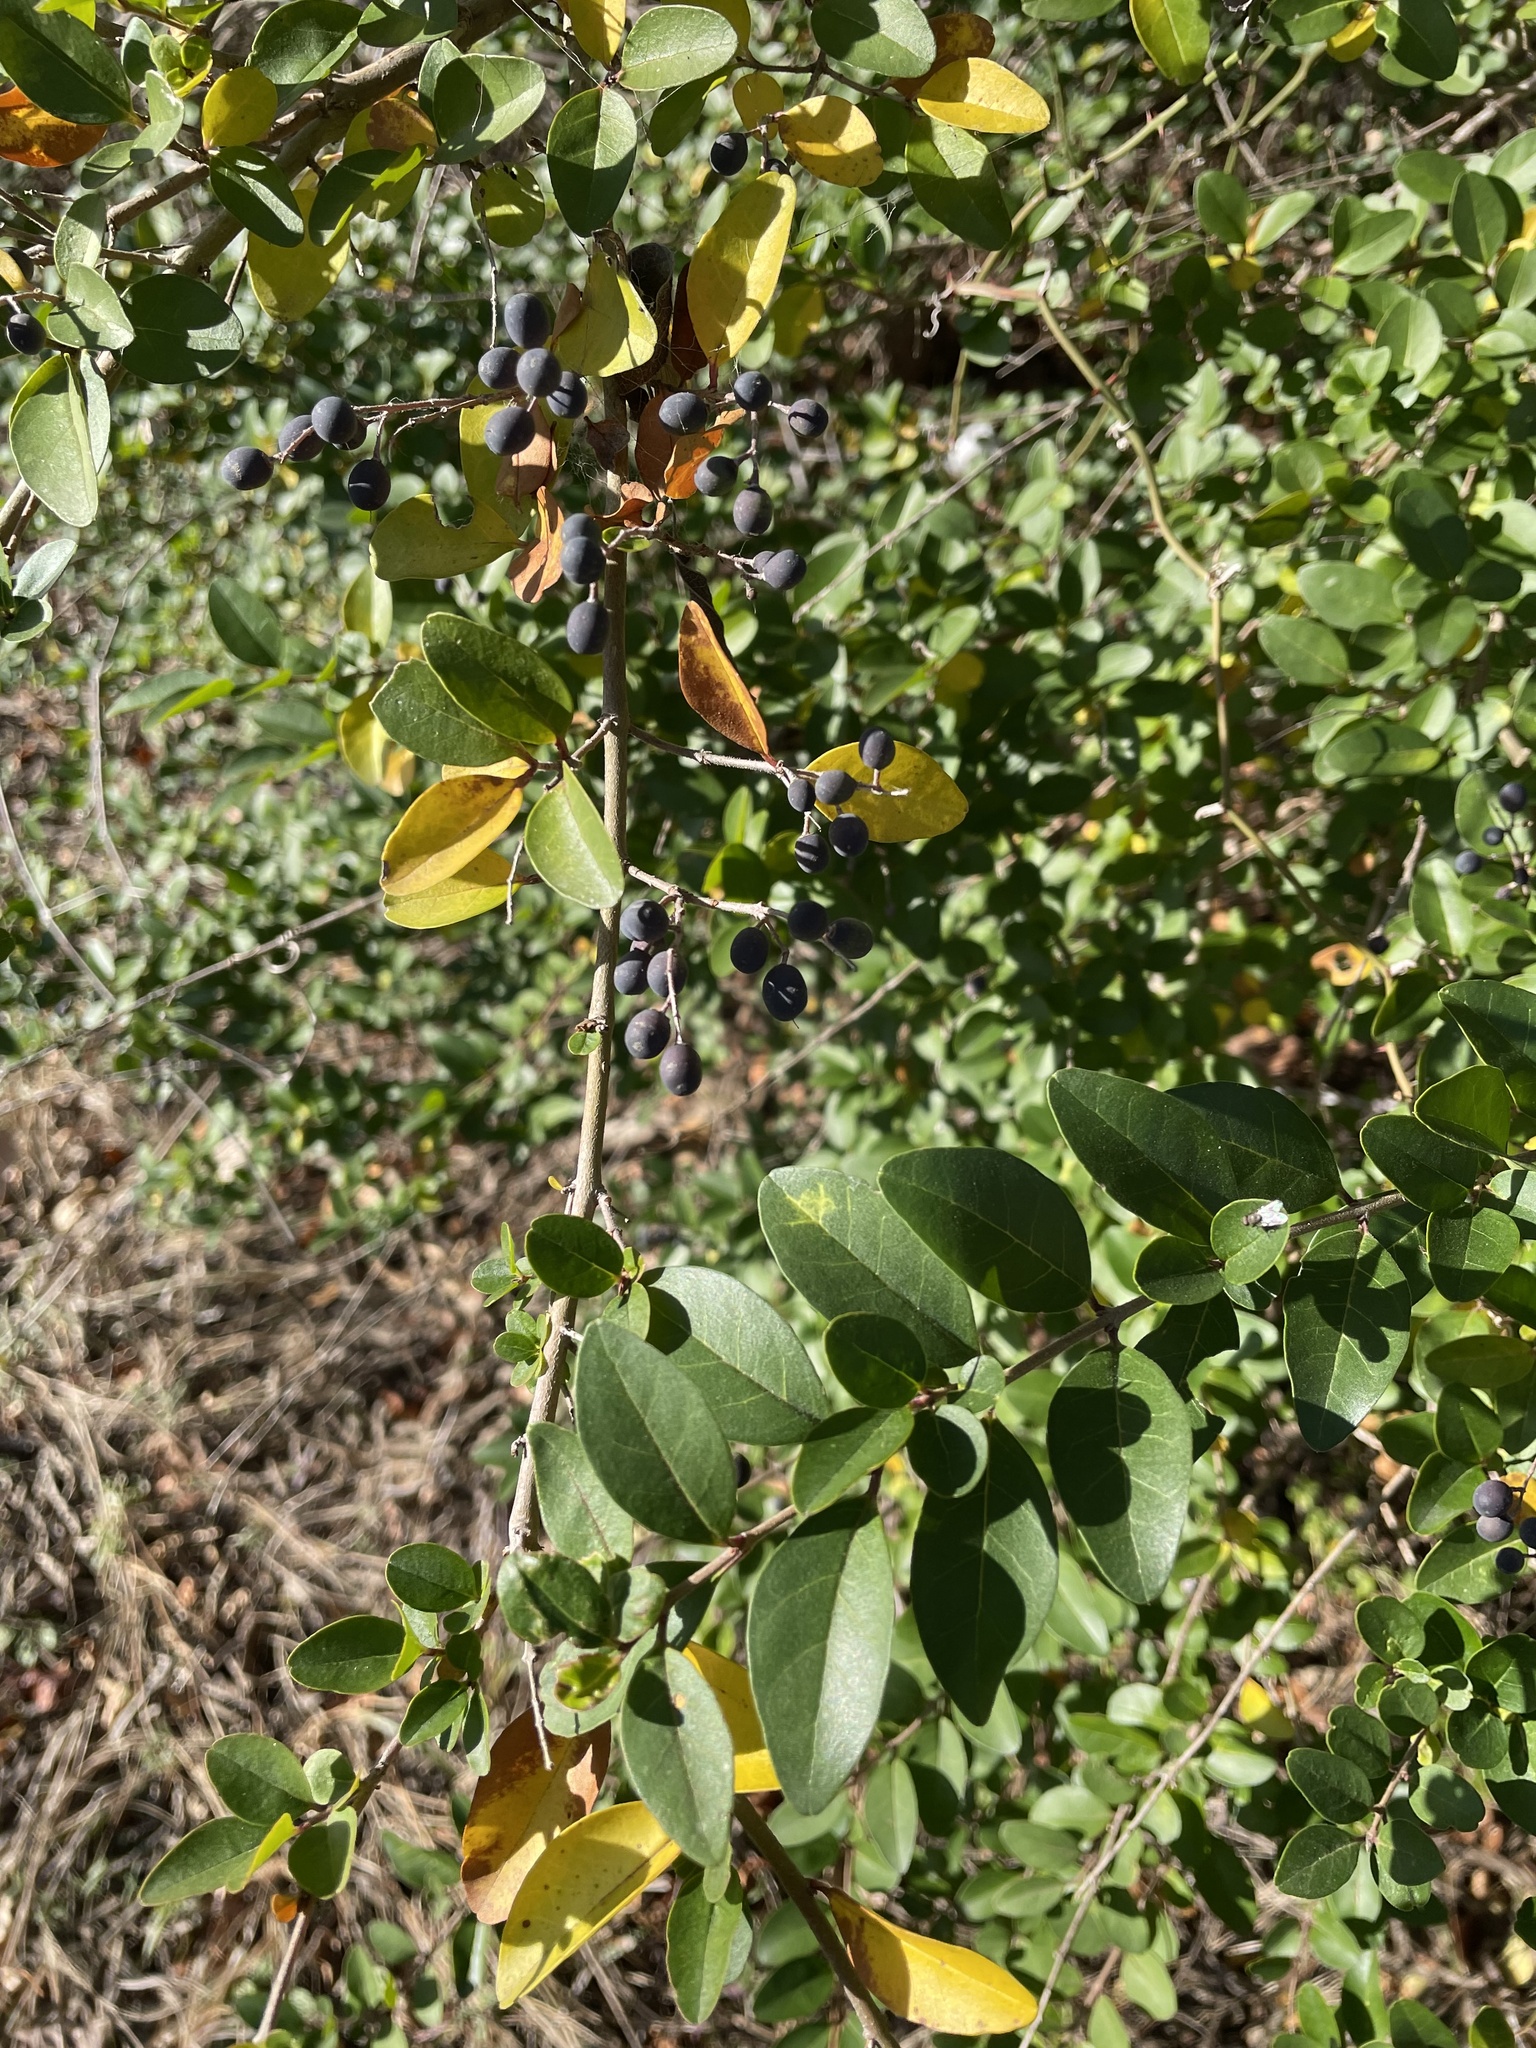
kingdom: Plantae
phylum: Tracheophyta
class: Magnoliopsida
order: Lamiales
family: Oleaceae
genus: Ligustrum
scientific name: Ligustrum sinense
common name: Chinese privet
